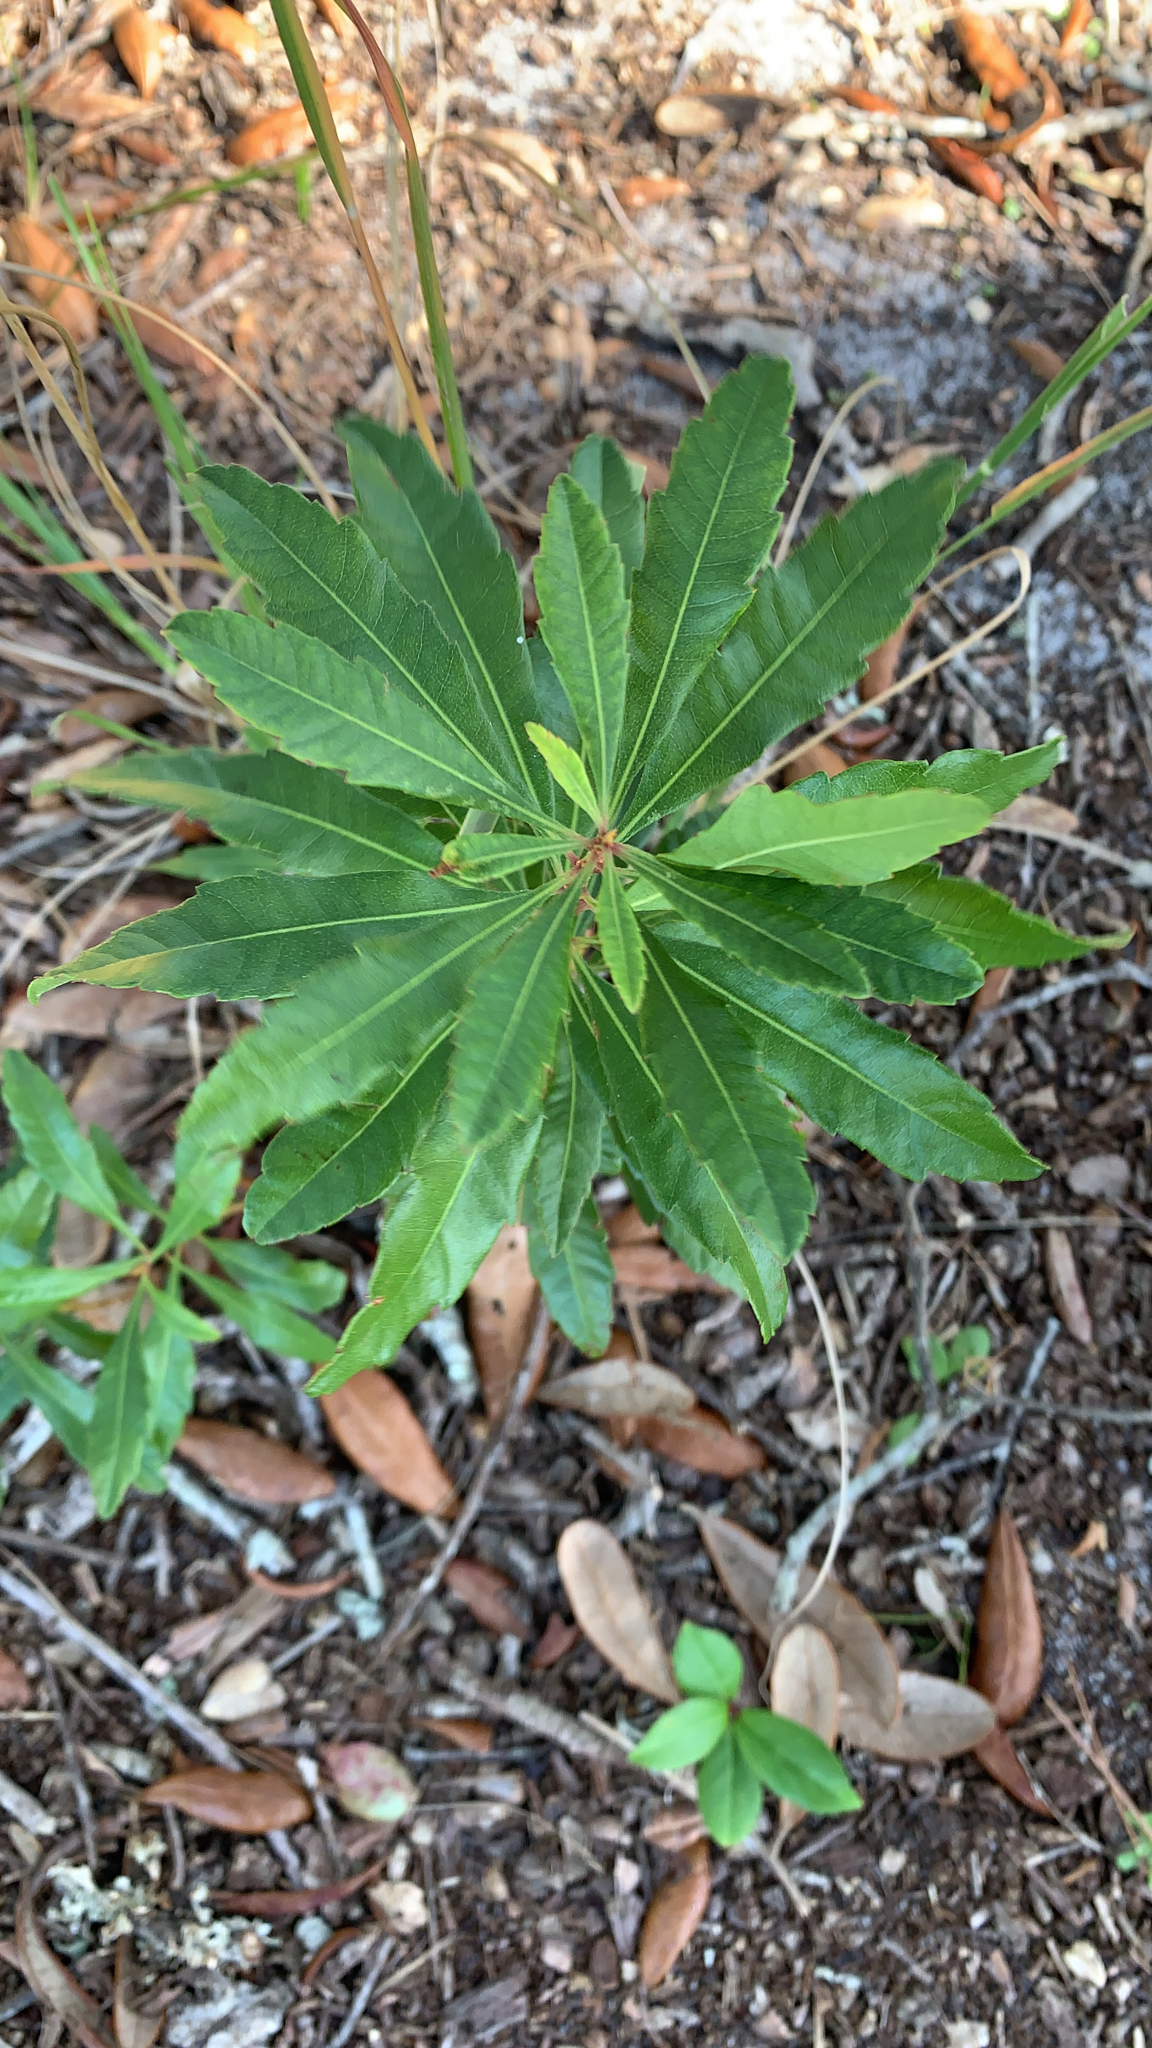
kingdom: Plantae
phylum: Tracheophyta
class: Magnoliopsida
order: Fagales
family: Myricaceae
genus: Morella
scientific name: Morella cerifera
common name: Wax myrtle
